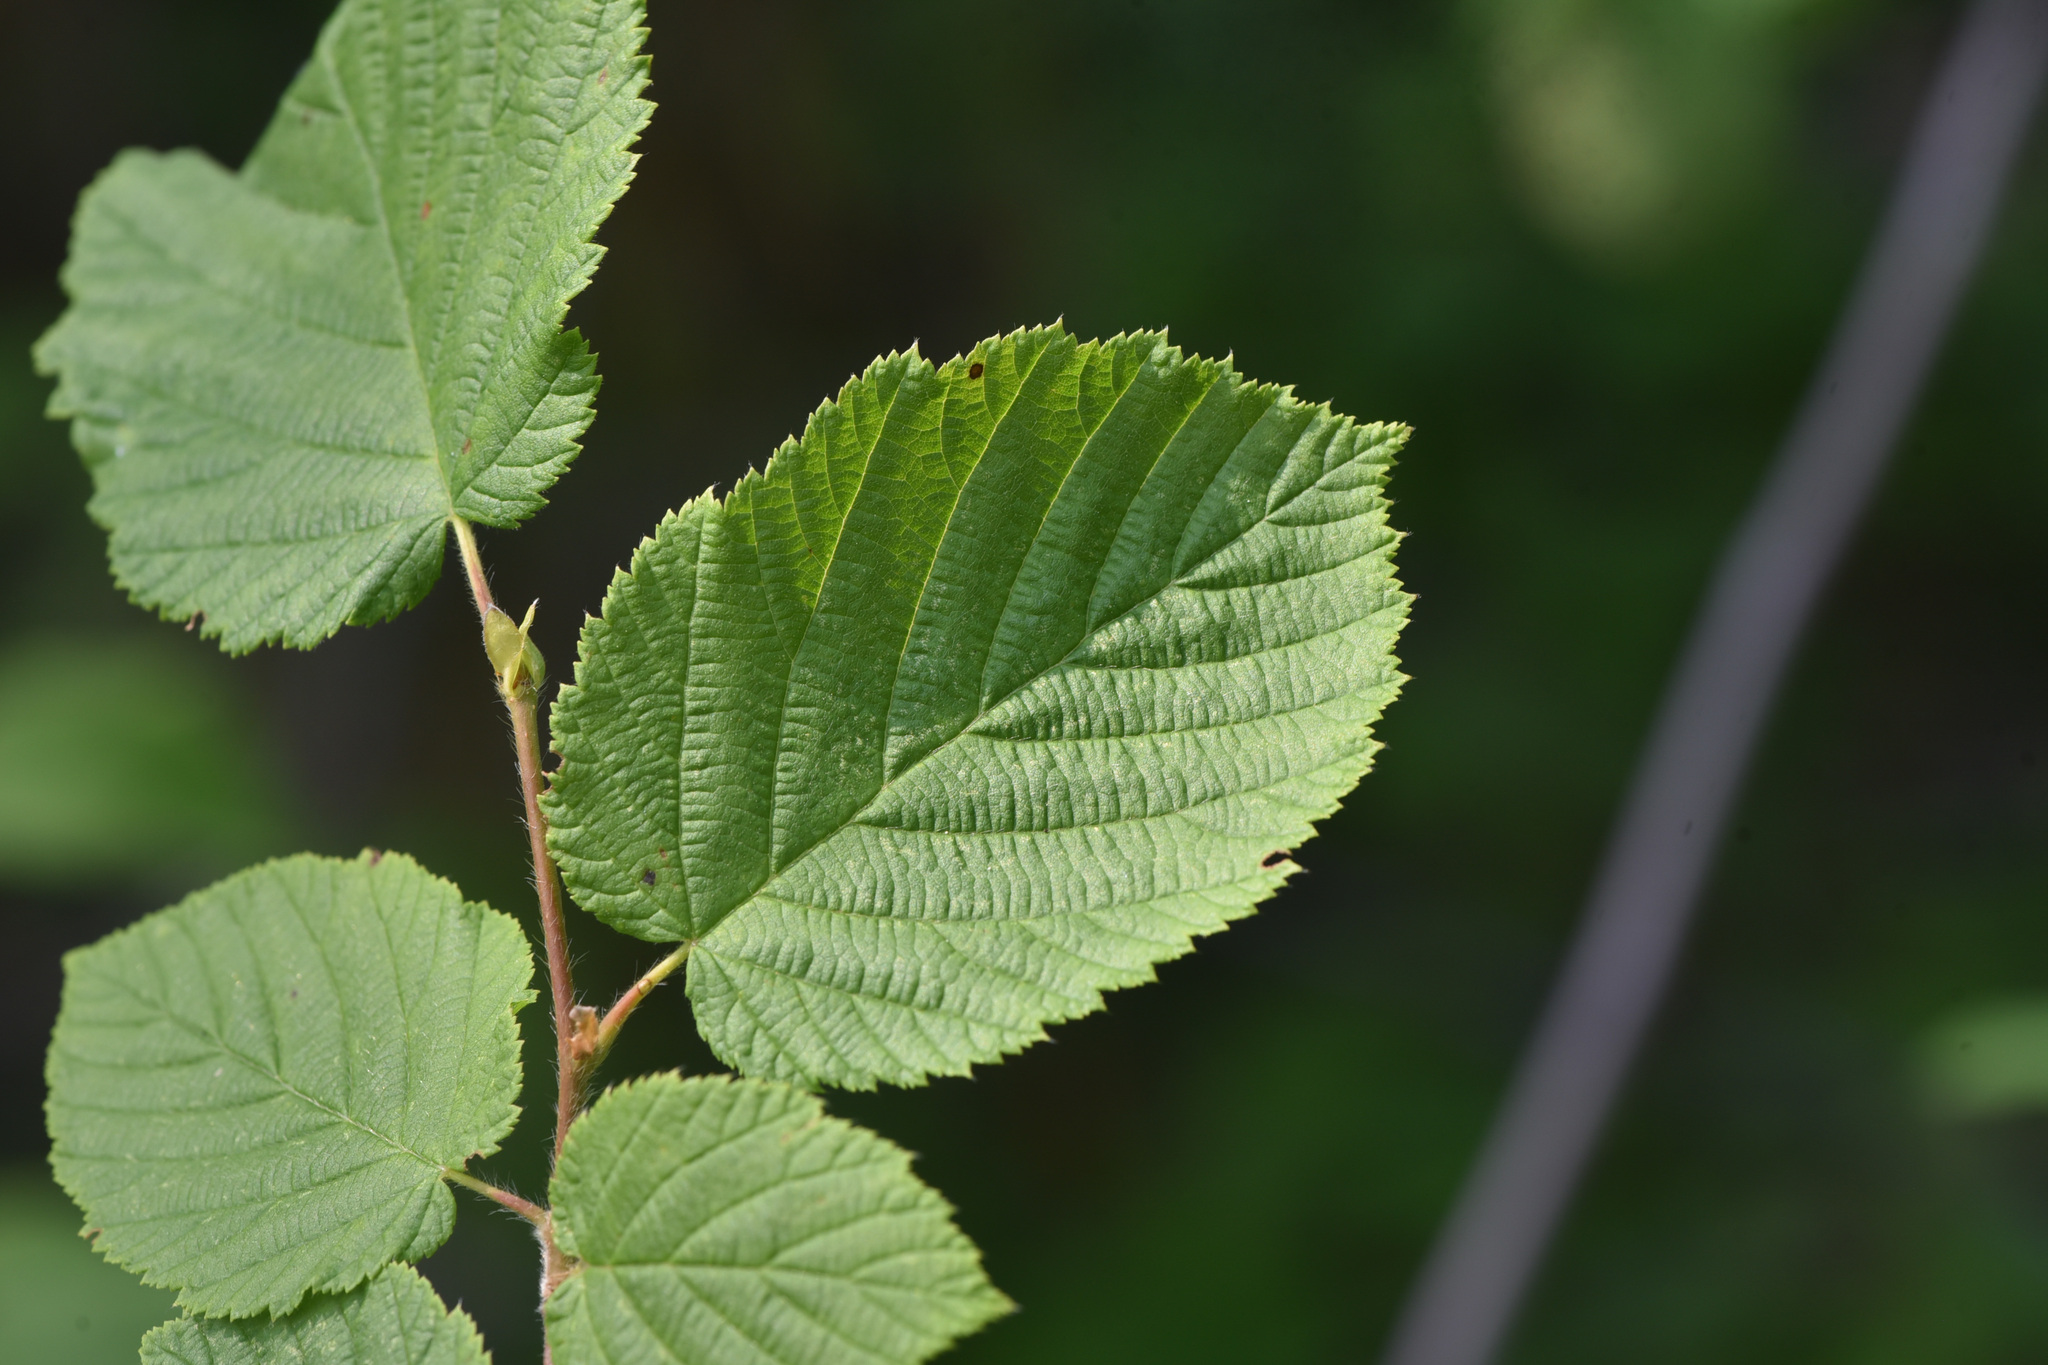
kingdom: Plantae
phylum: Tracheophyta
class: Magnoliopsida
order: Fagales
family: Betulaceae
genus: Corylus
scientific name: Corylus cornuta
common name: Beaked hazel
